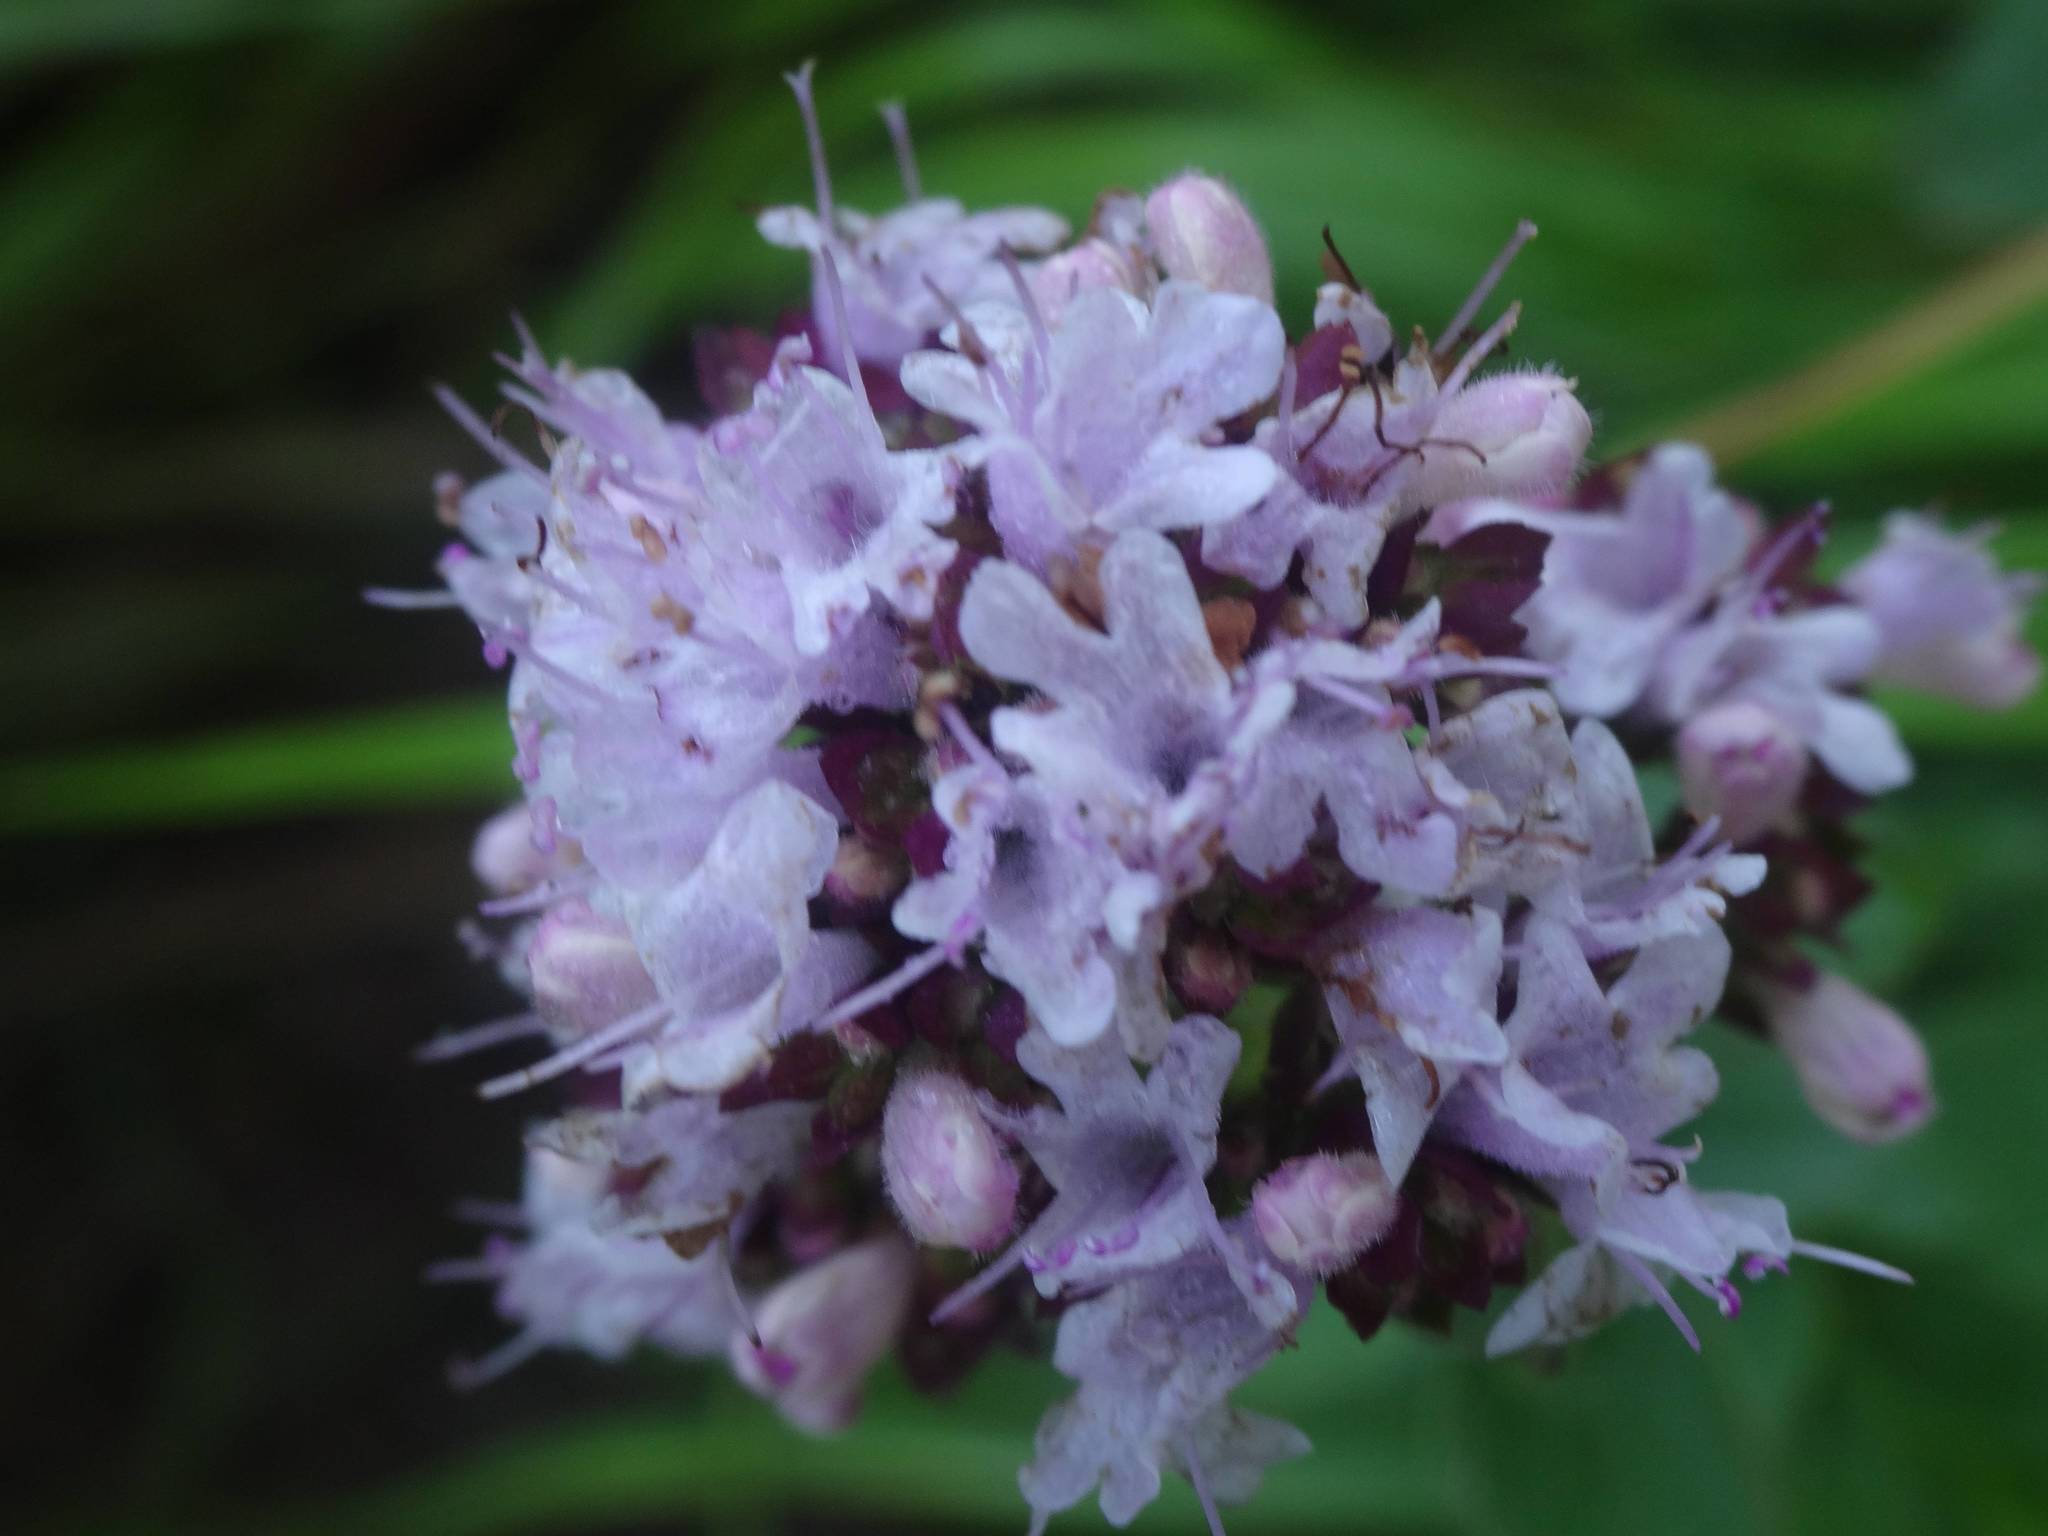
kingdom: Plantae
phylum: Tracheophyta
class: Magnoliopsida
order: Lamiales
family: Lamiaceae
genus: Origanum
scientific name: Origanum vulgare
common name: Wild marjoram
